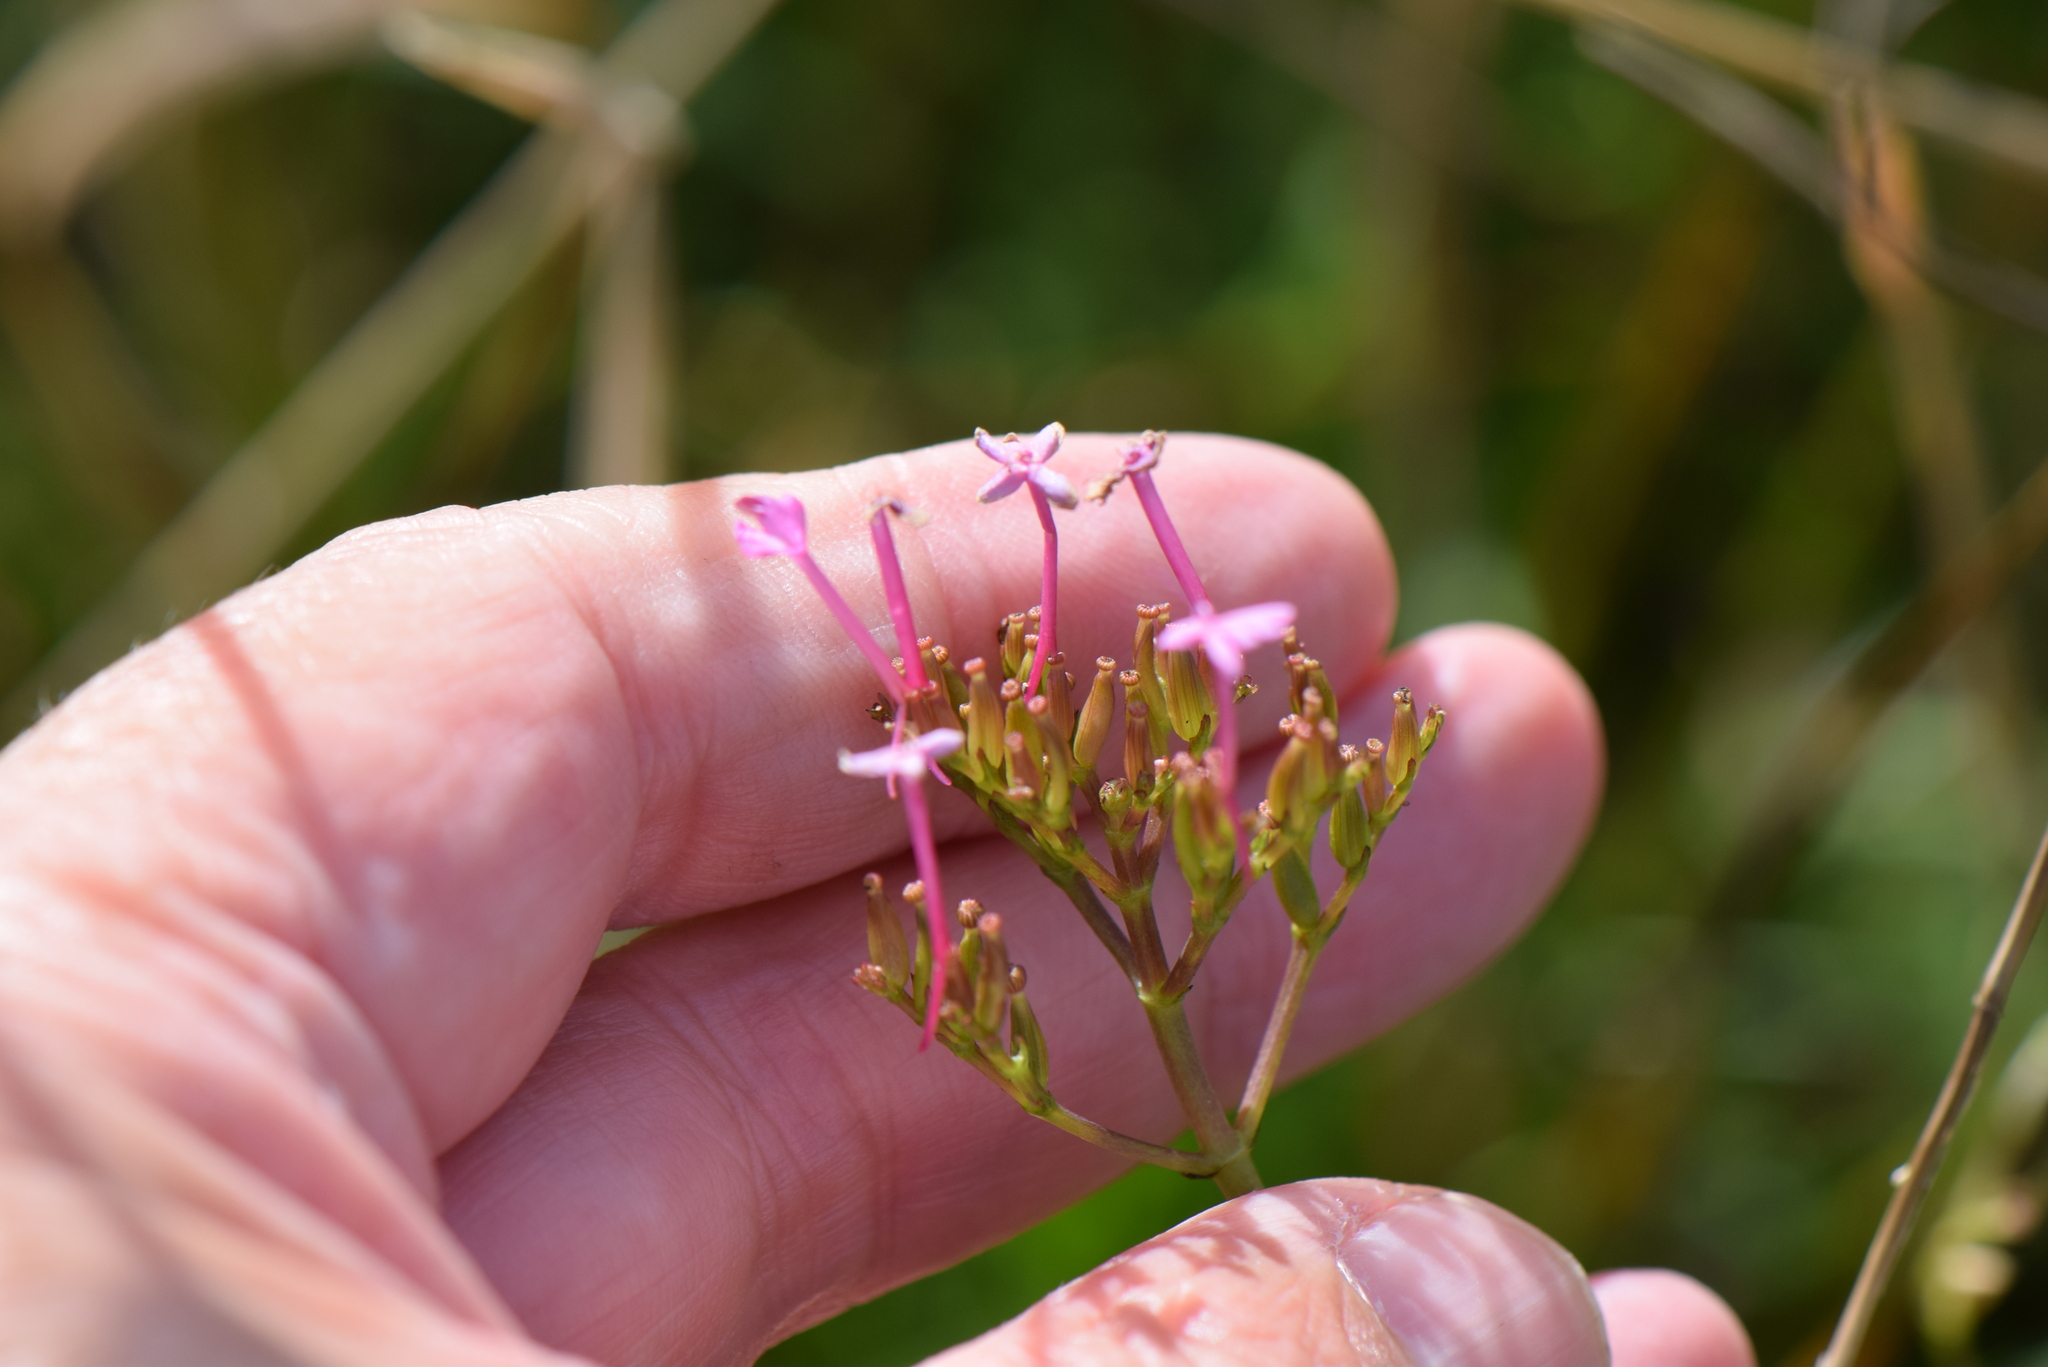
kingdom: Plantae
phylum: Tracheophyta
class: Magnoliopsida
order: Dipsacales
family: Caprifoliaceae
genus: Centranthus
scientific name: Centranthus ruber
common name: Red valerian
